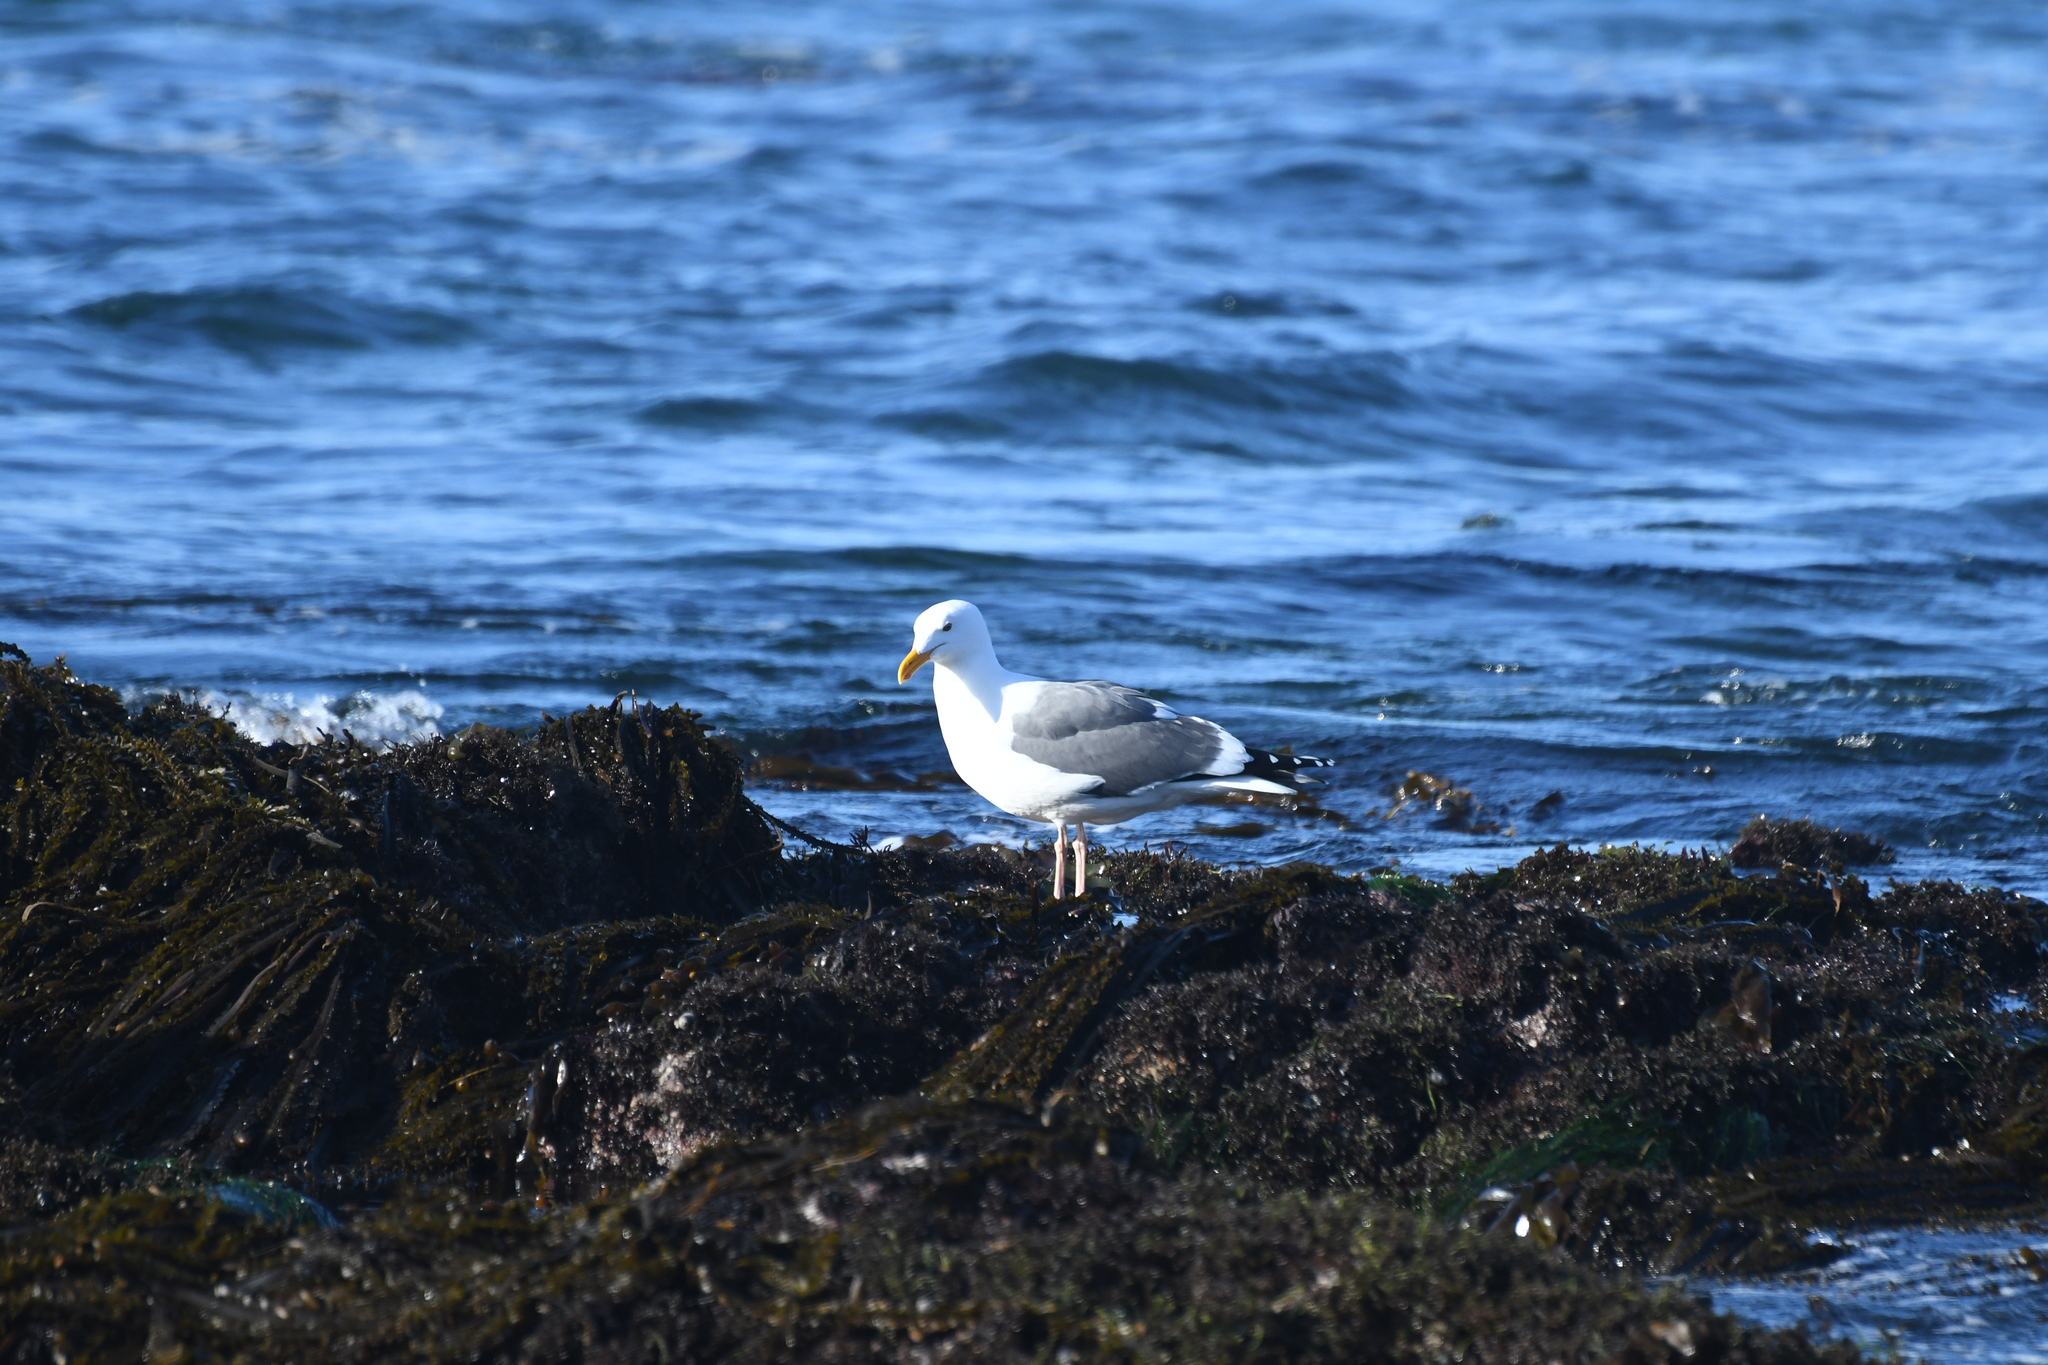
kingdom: Animalia
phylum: Chordata
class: Aves
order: Charadriiformes
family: Laridae
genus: Larus
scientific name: Larus occidentalis
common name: Western gull
